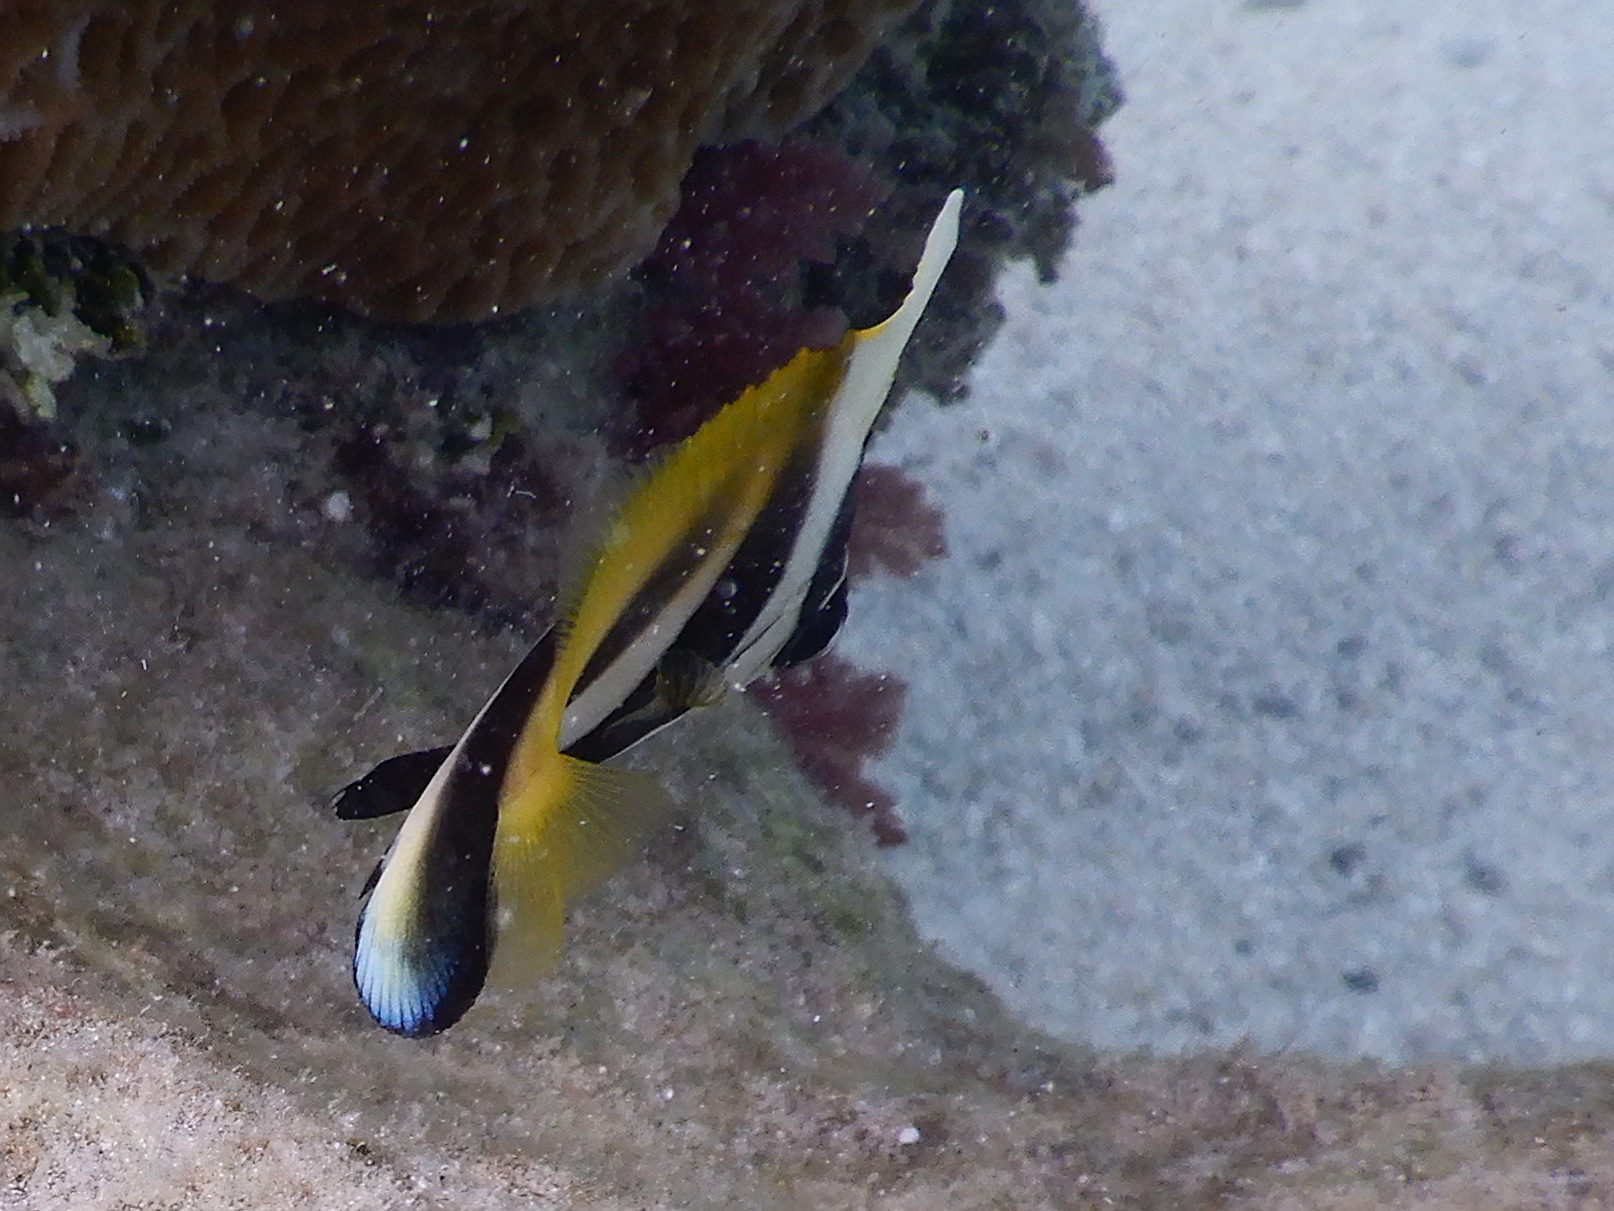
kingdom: Animalia
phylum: Chordata
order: Perciformes
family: Chaetodontidae
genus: Heniochus
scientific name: Heniochus monoceros
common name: Masked bannerfish
